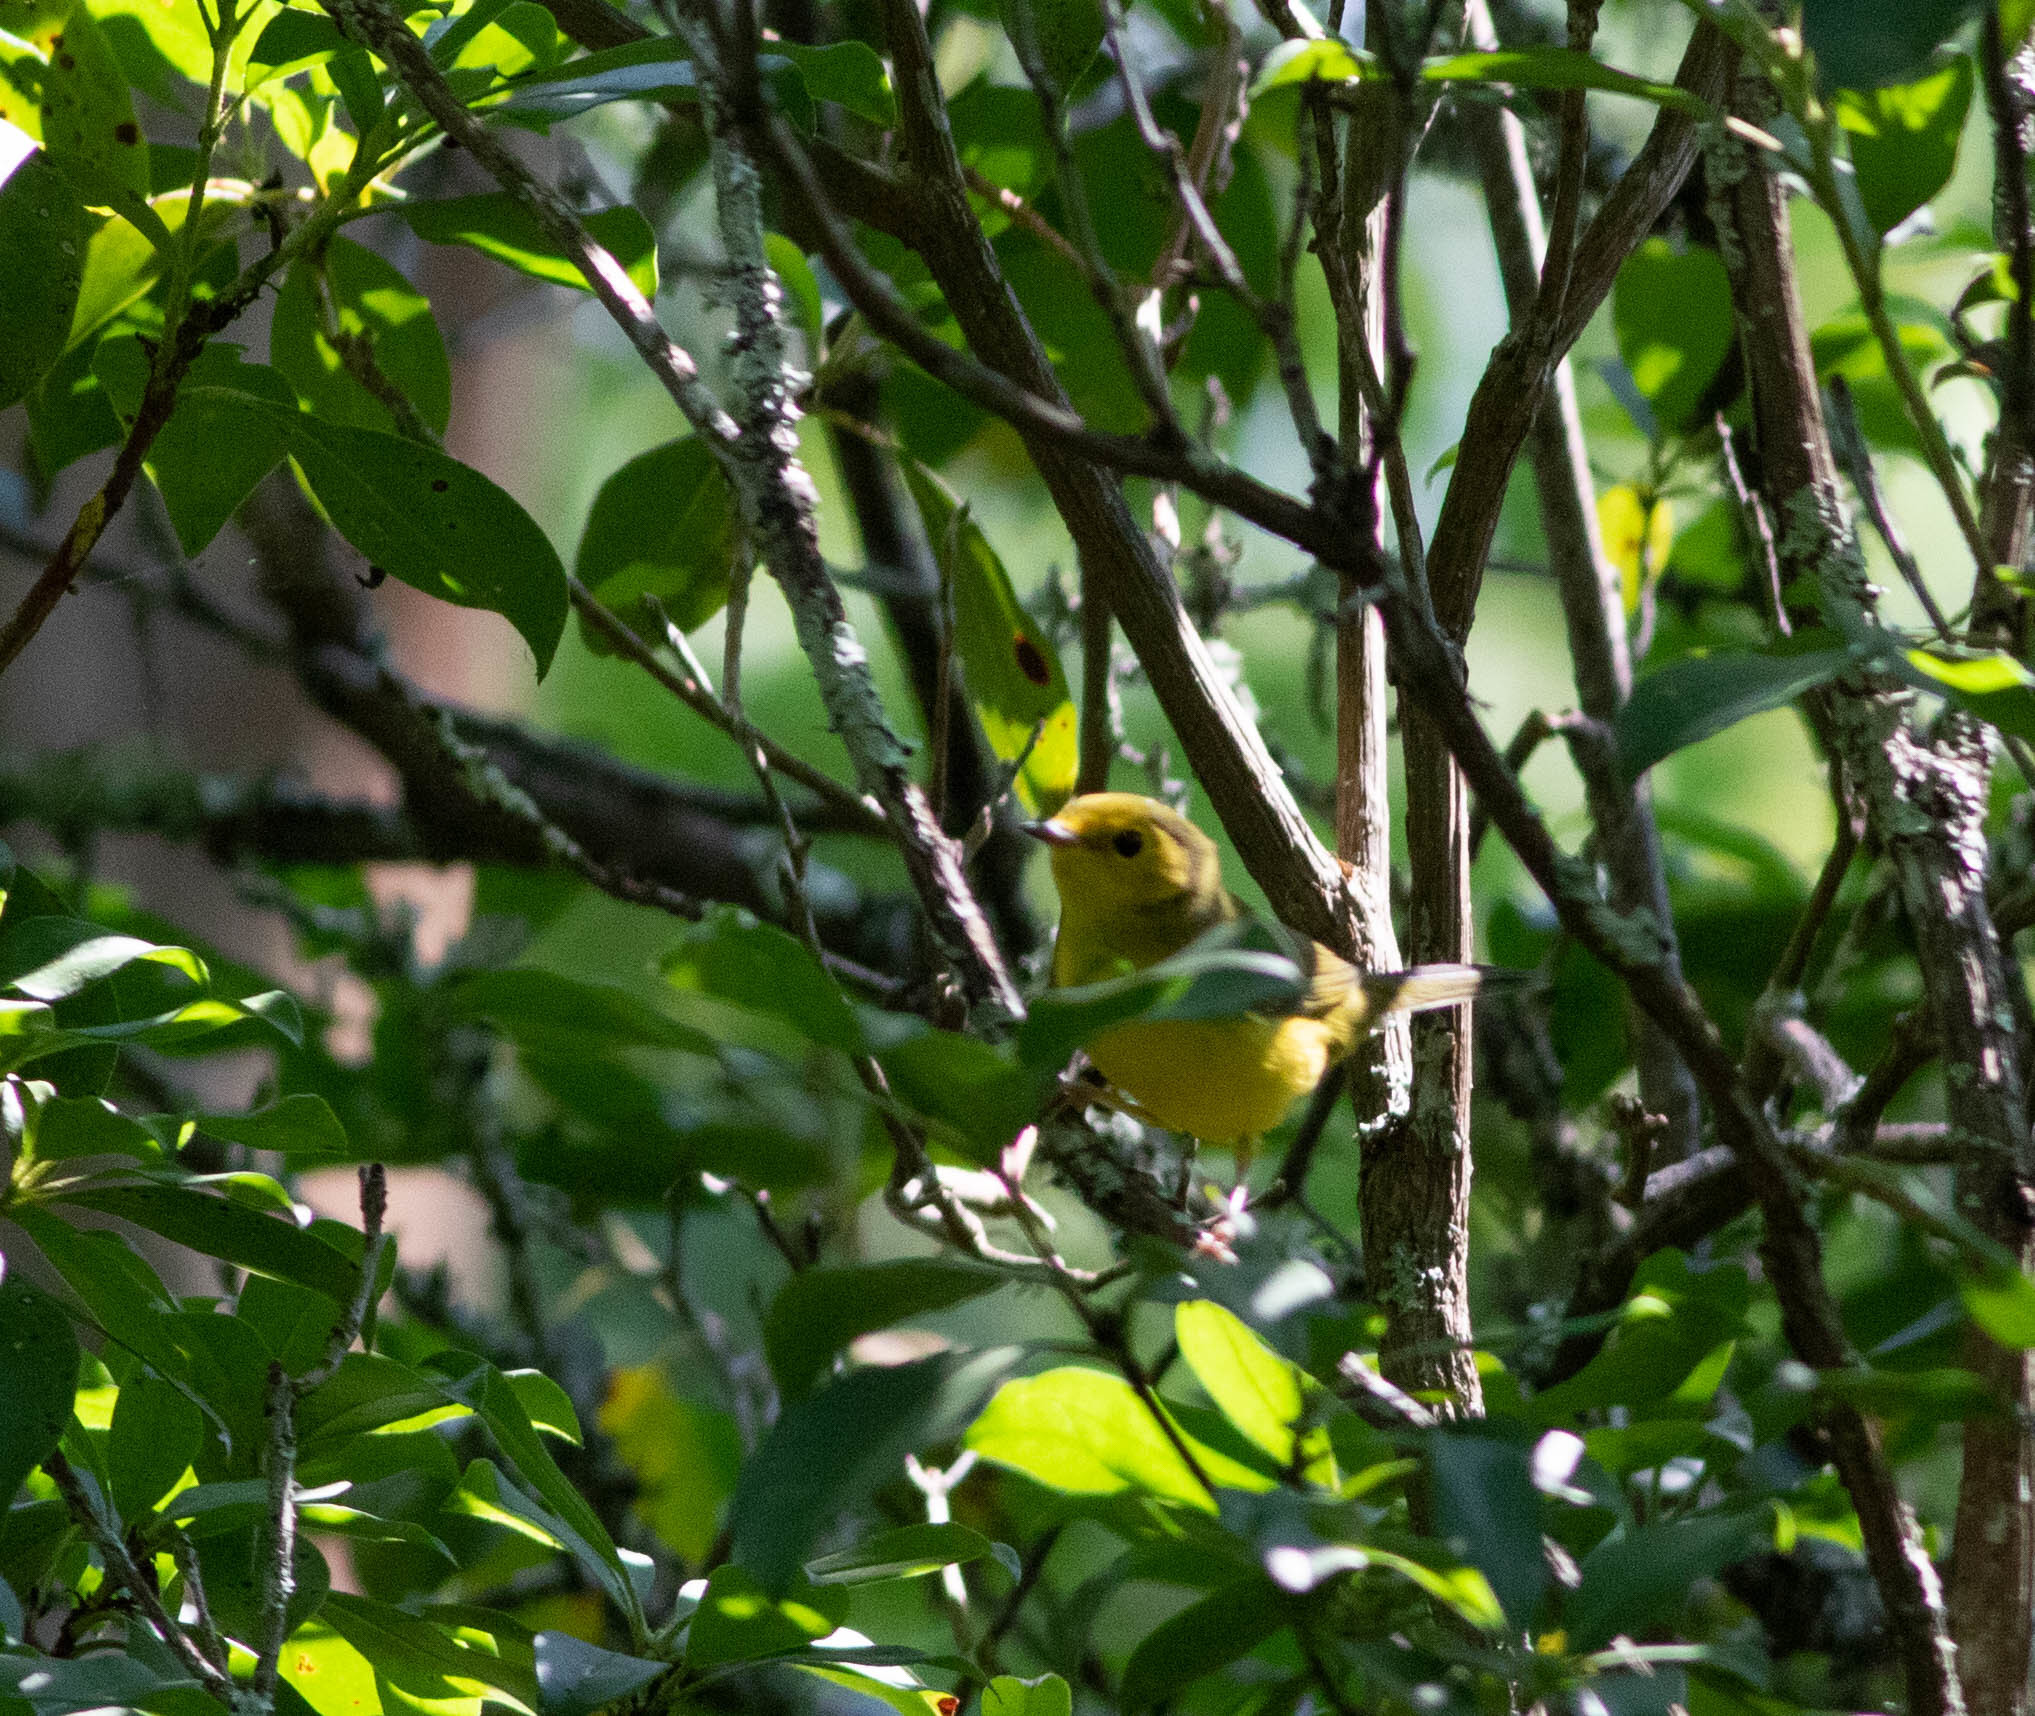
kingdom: Animalia
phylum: Chordata
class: Aves
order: Passeriformes
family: Parulidae
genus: Setophaga
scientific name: Setophaga citrina
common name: Hooded warbler
